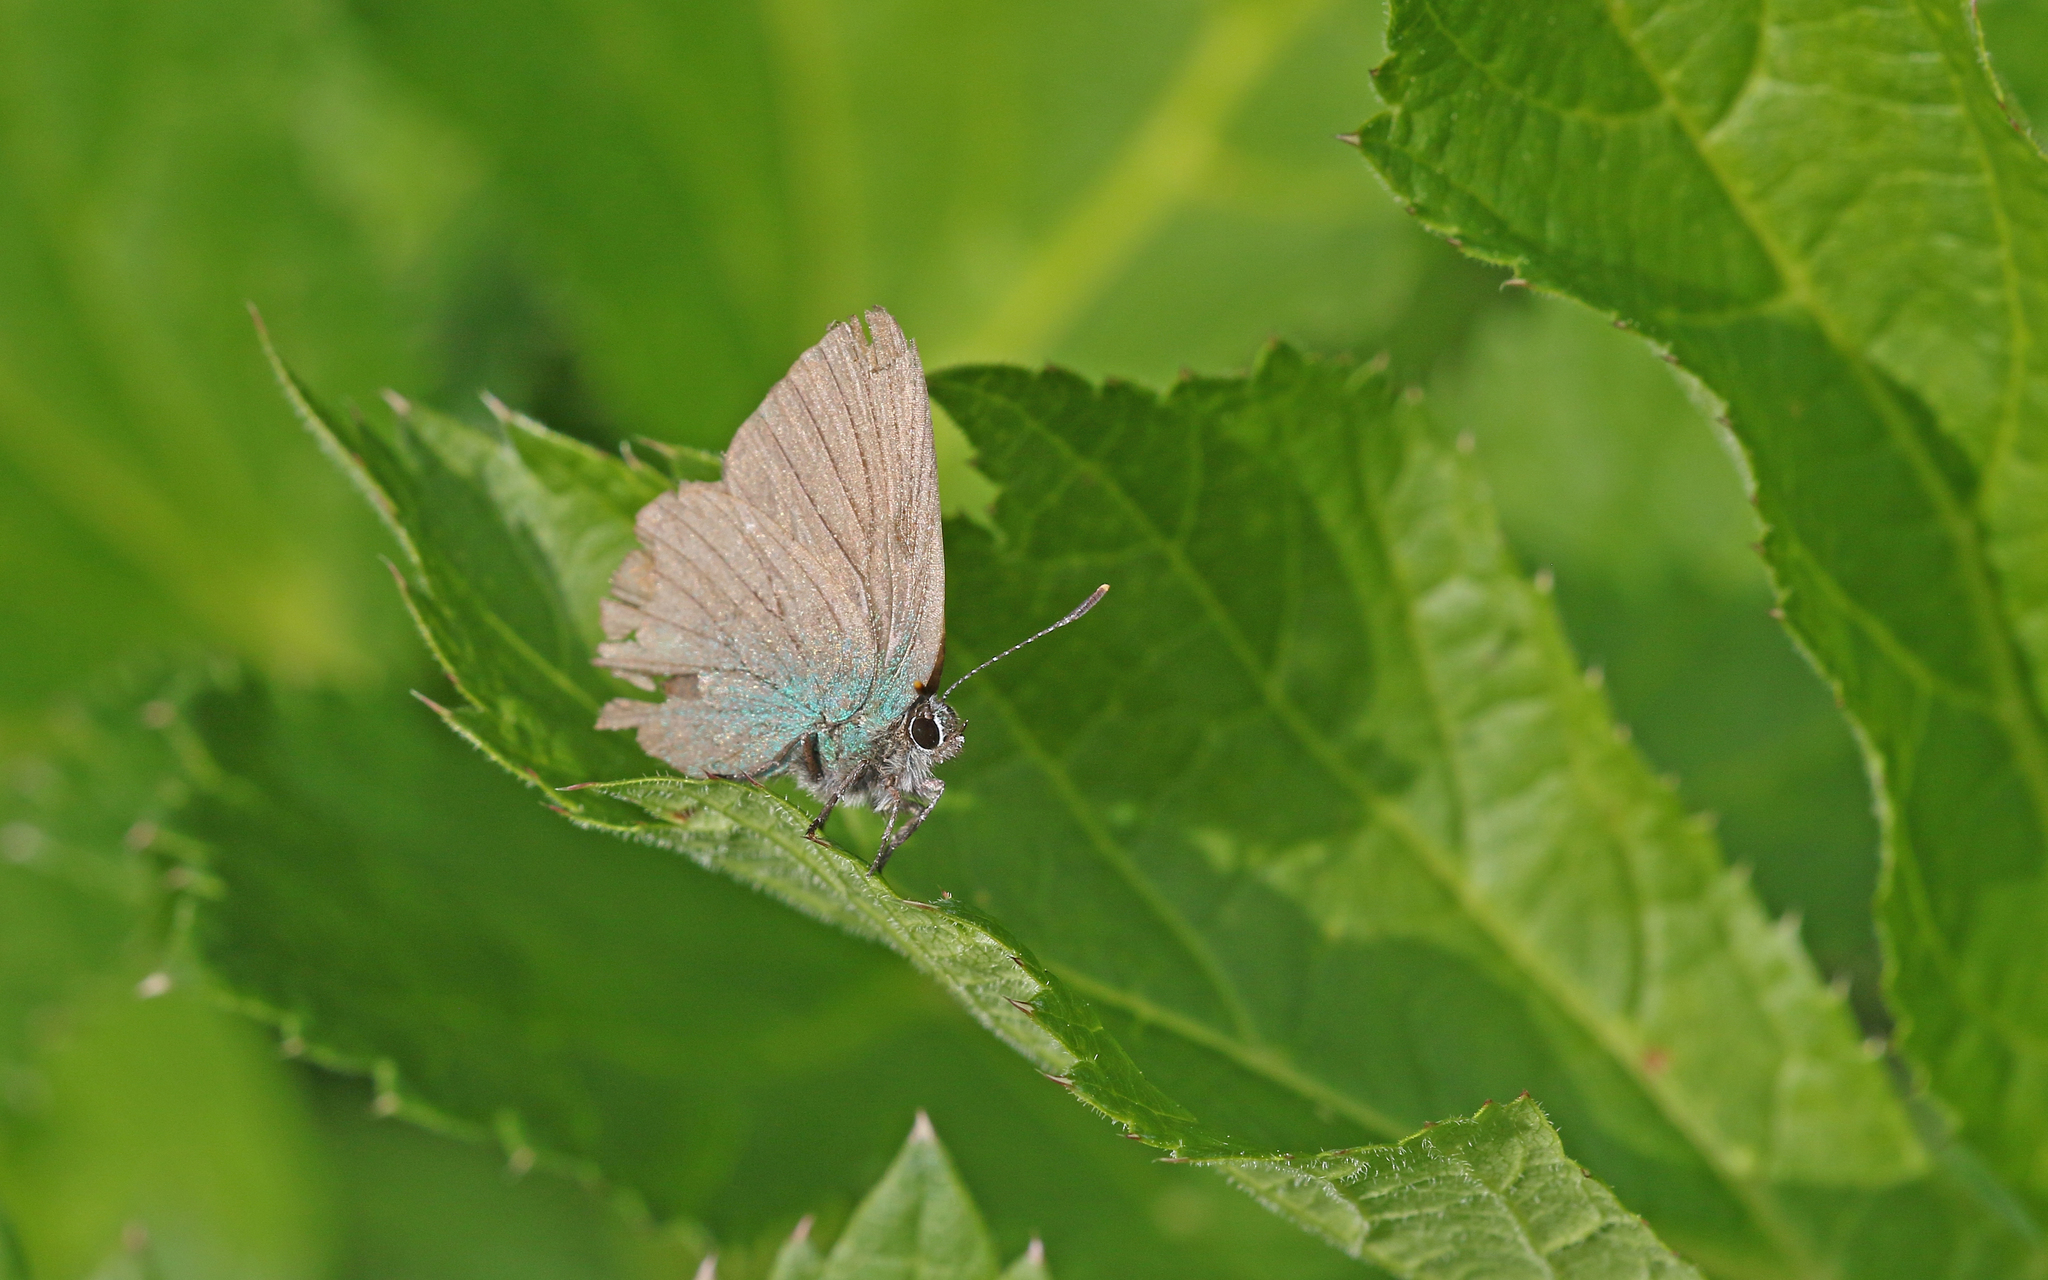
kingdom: Animalia
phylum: Arthropoda
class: Insecta
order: Lepidoptera
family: Lycaenidae
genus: Callophrys
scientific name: Callophrys rubi
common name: Green hairstreak
